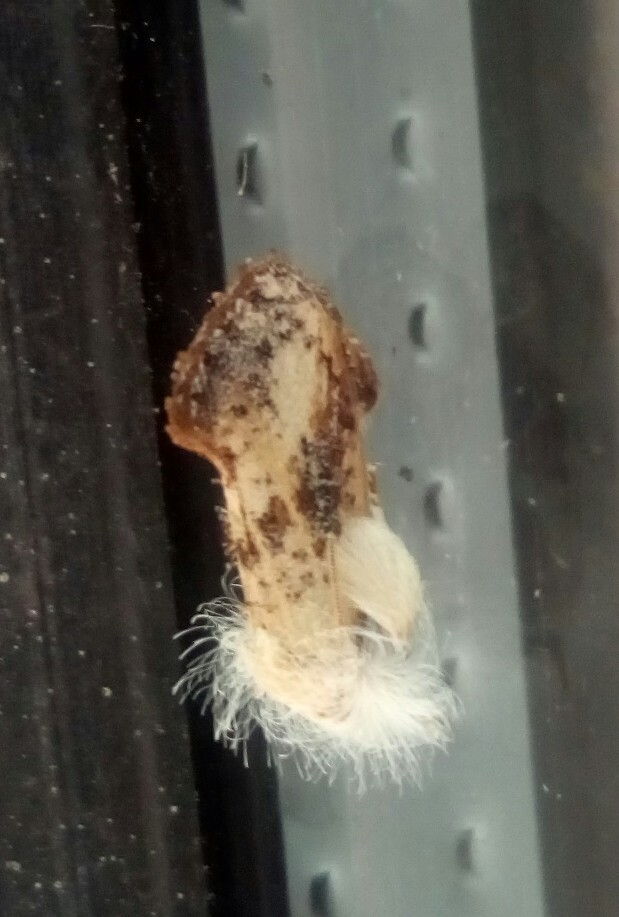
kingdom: Animalia
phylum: Arthropoda
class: Insecta
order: Lepidoptera
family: Tineidae
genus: Acrolophus
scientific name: Acrolophus mycetophagus
